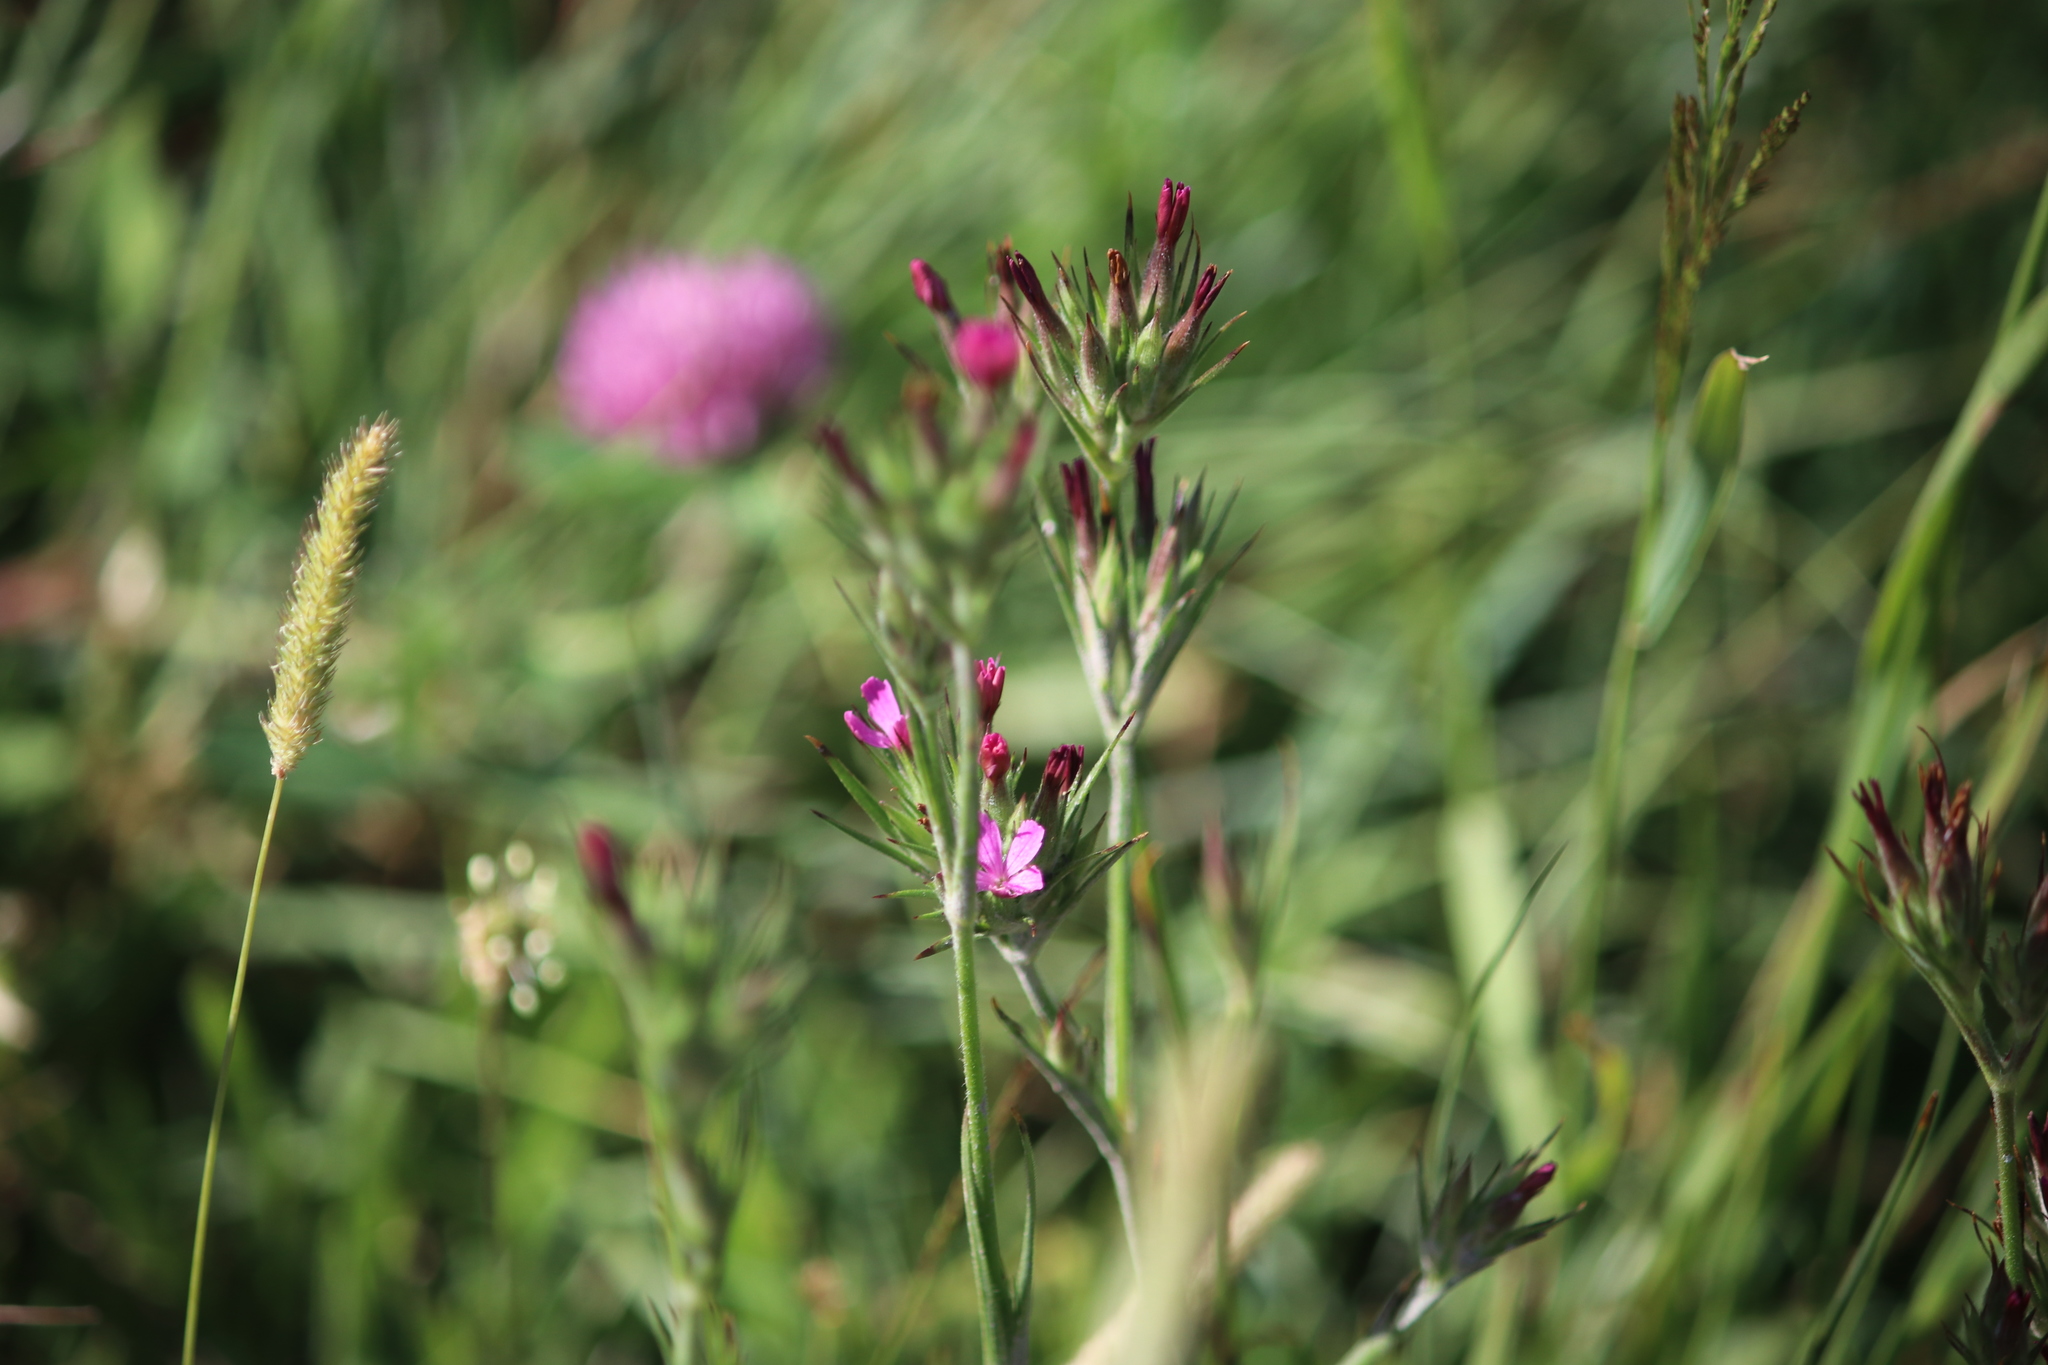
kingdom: Plantae
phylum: Tracheophyta
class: Magnoliopsida
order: Caryophyllales
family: Caryophyllaceae
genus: Dianthus
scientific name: Dianthus armeria
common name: Deptford pink
